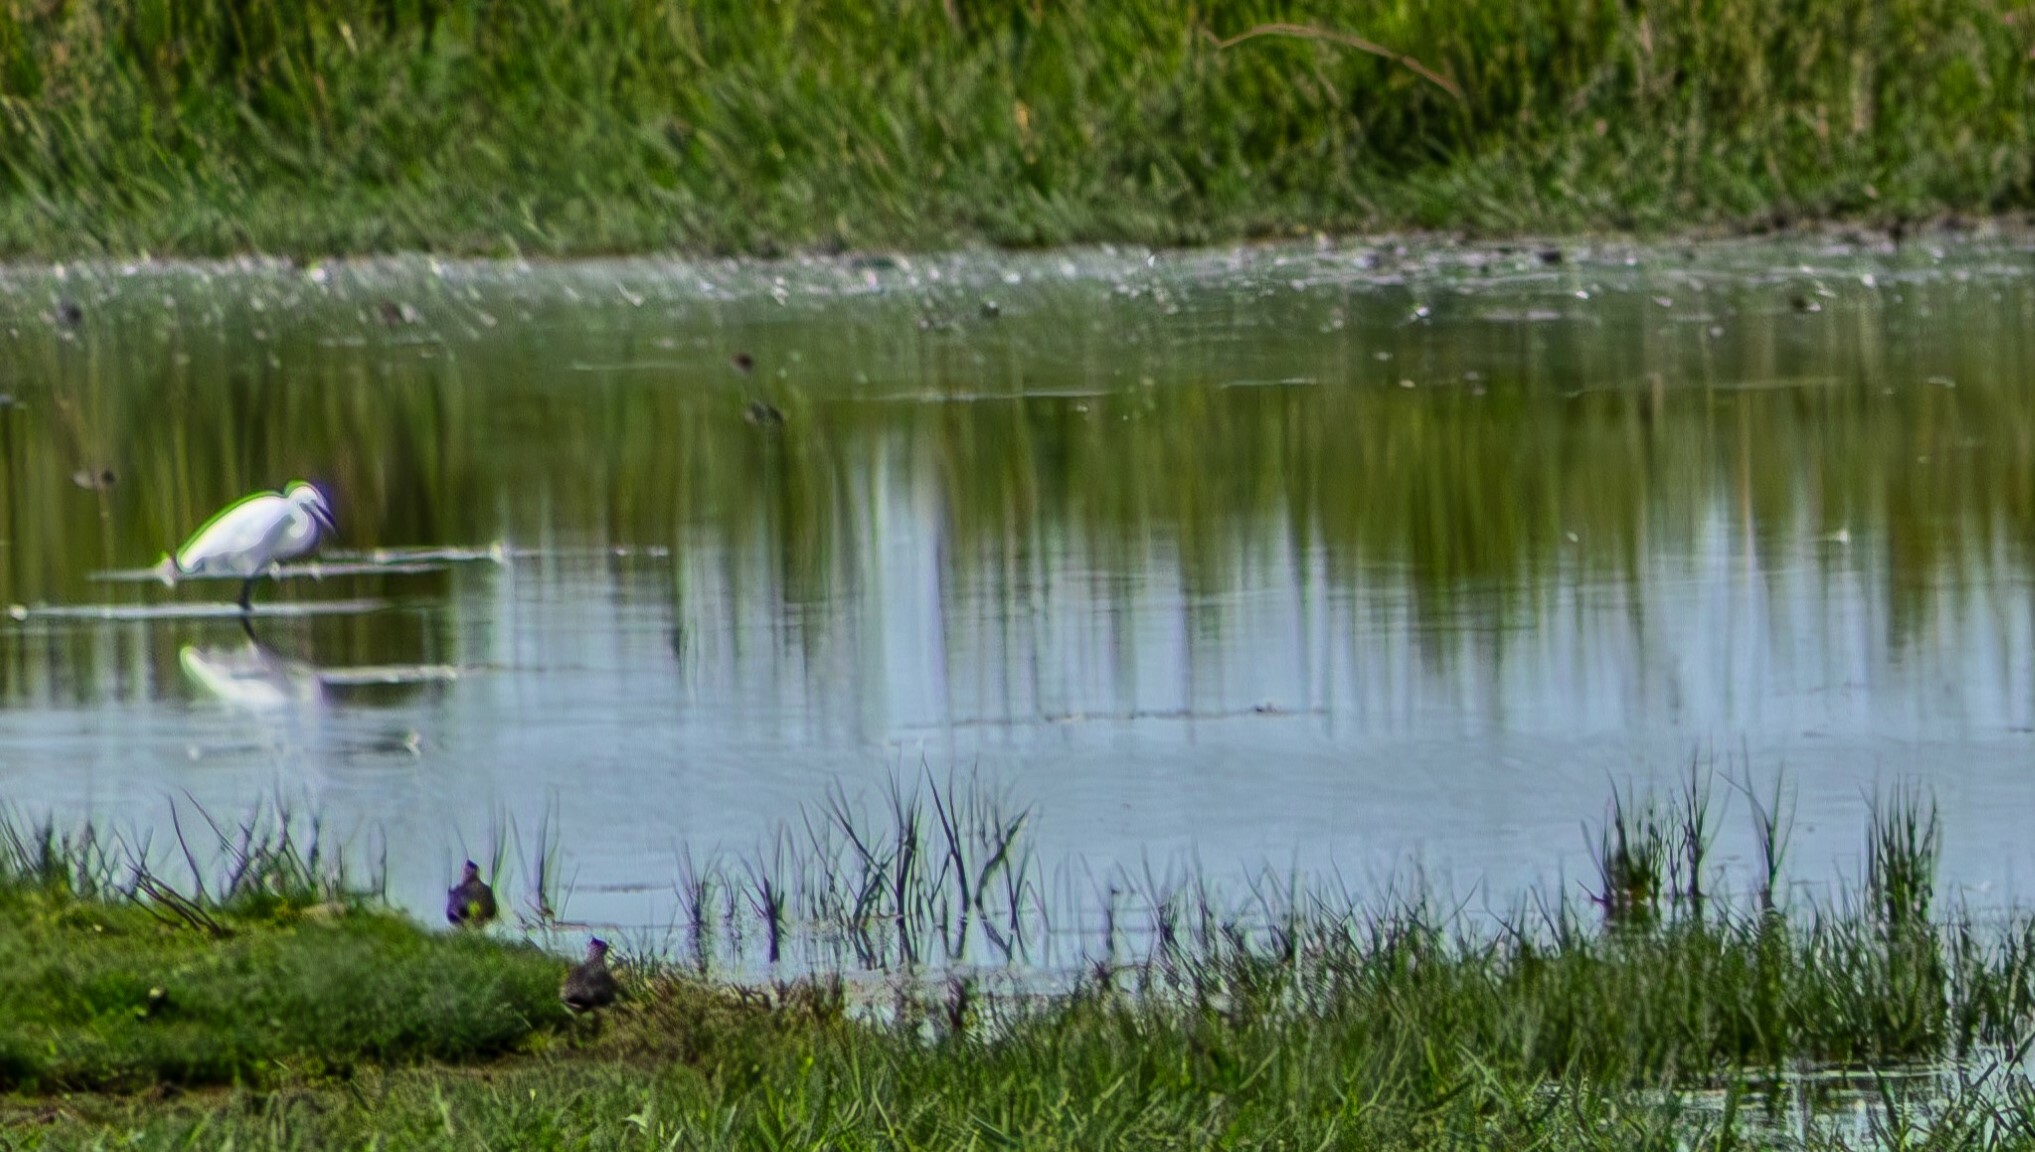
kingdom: Animalia
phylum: Chordata
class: Aves
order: Pelecaniformes
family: Ardeidae
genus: Egretta
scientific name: Egretta garzetta
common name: Little egret
